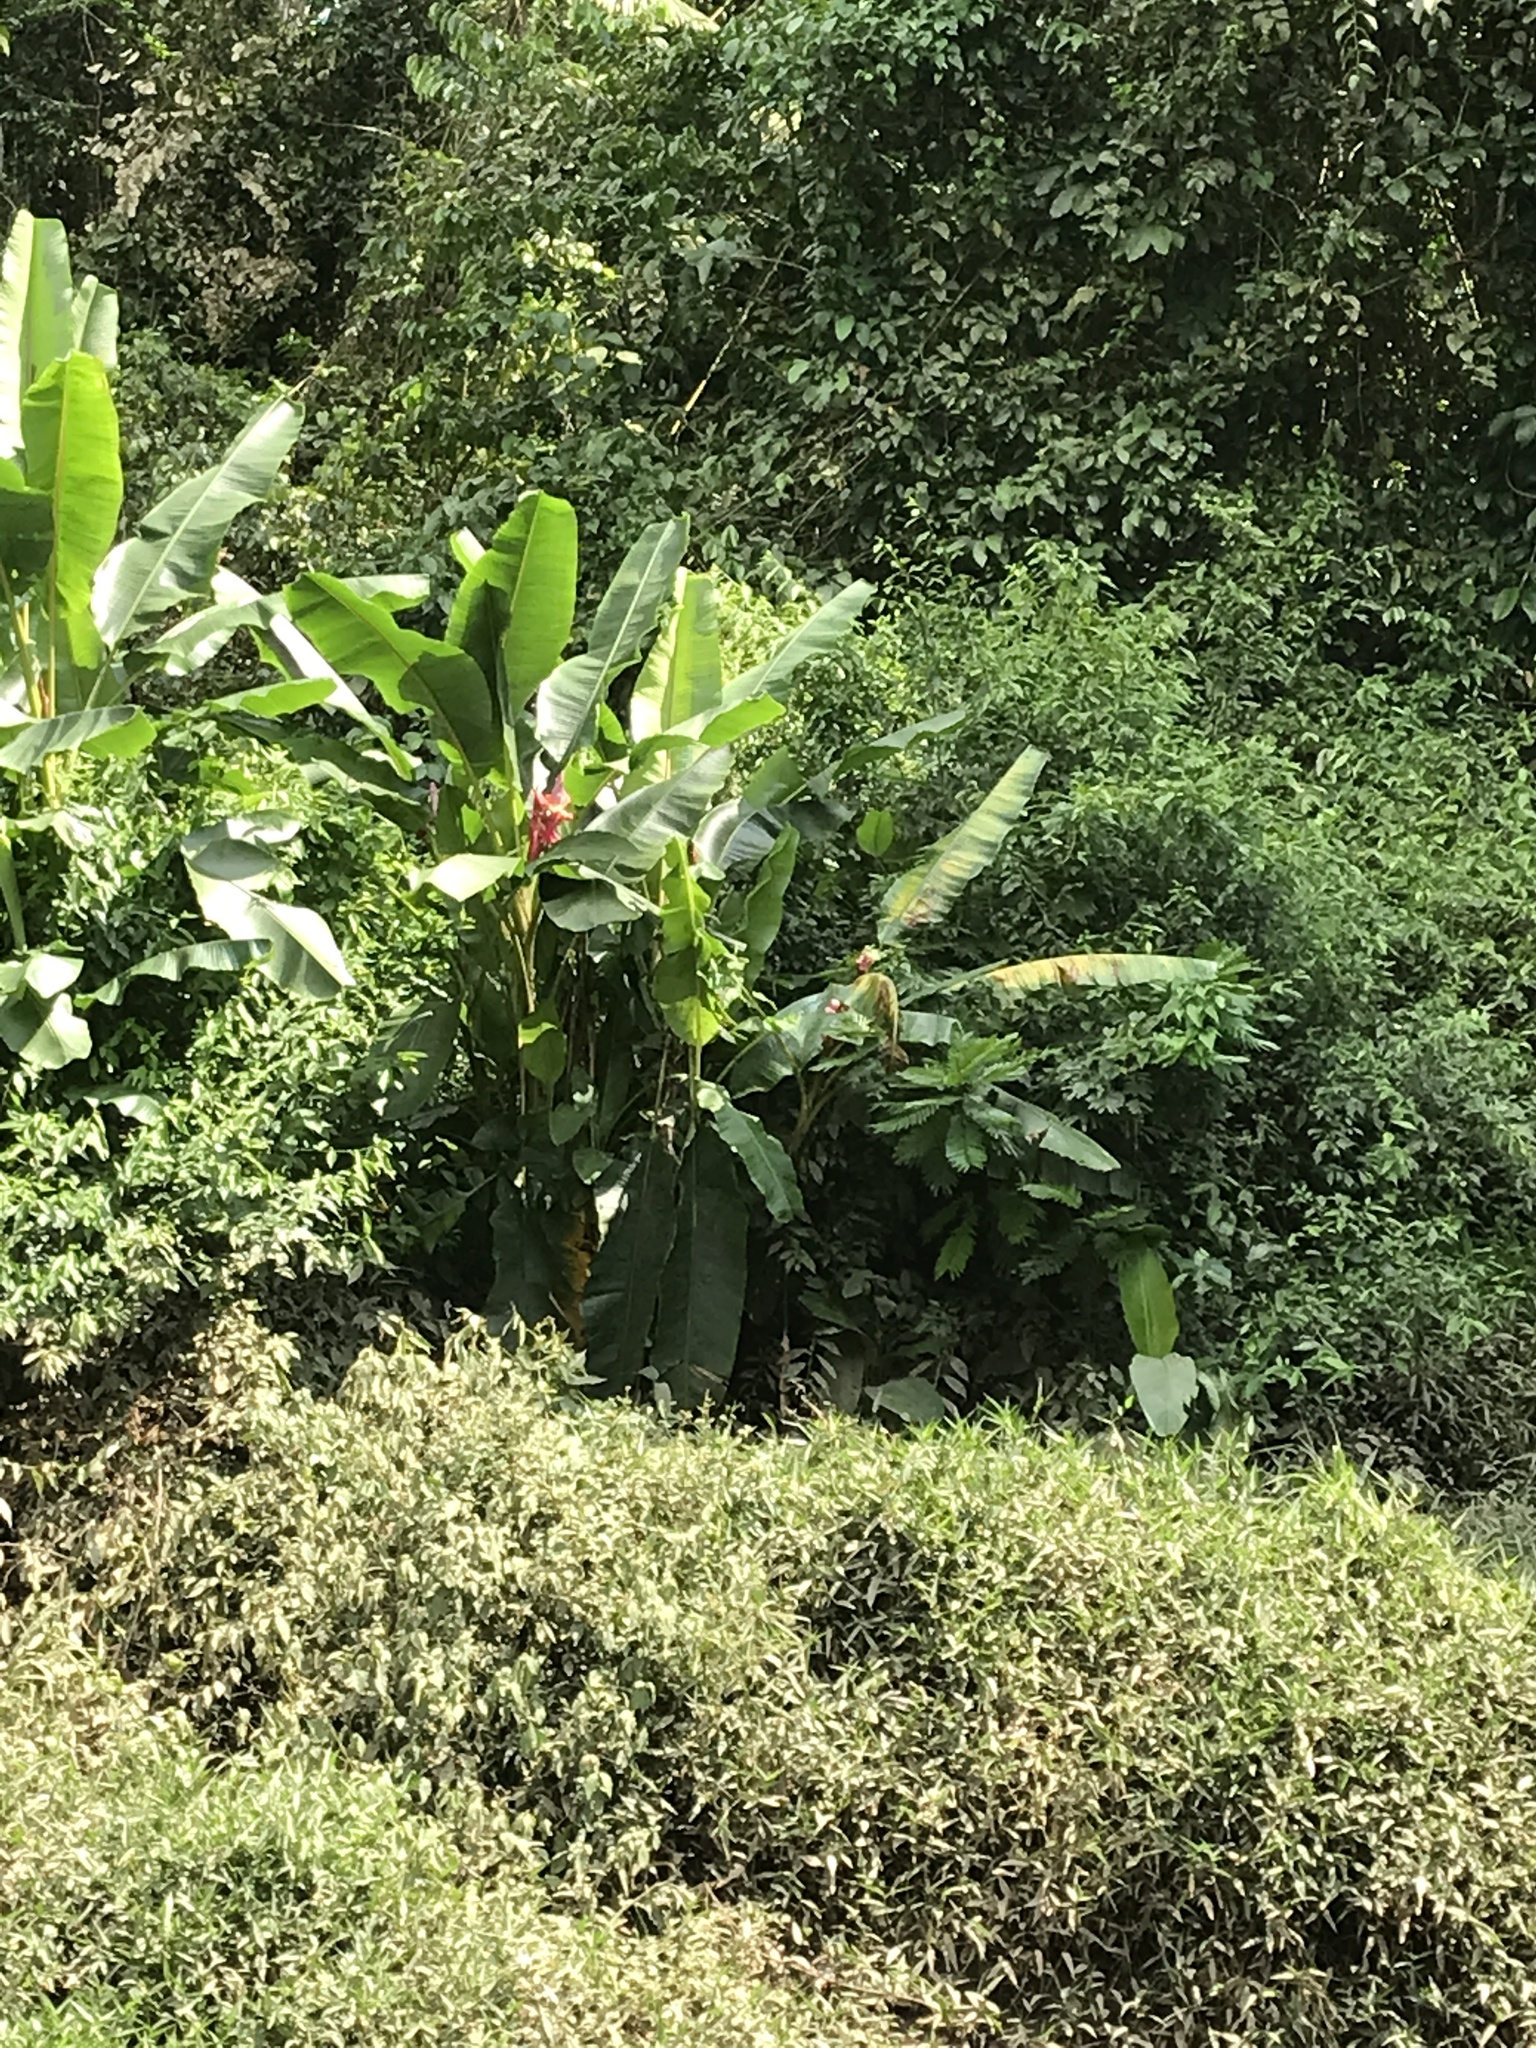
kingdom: Plantae
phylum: Tracheophyta
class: Liliopsida
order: Zingiberales
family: Musaceae
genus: Musa
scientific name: Musa velutina
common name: Pink velvet banana
